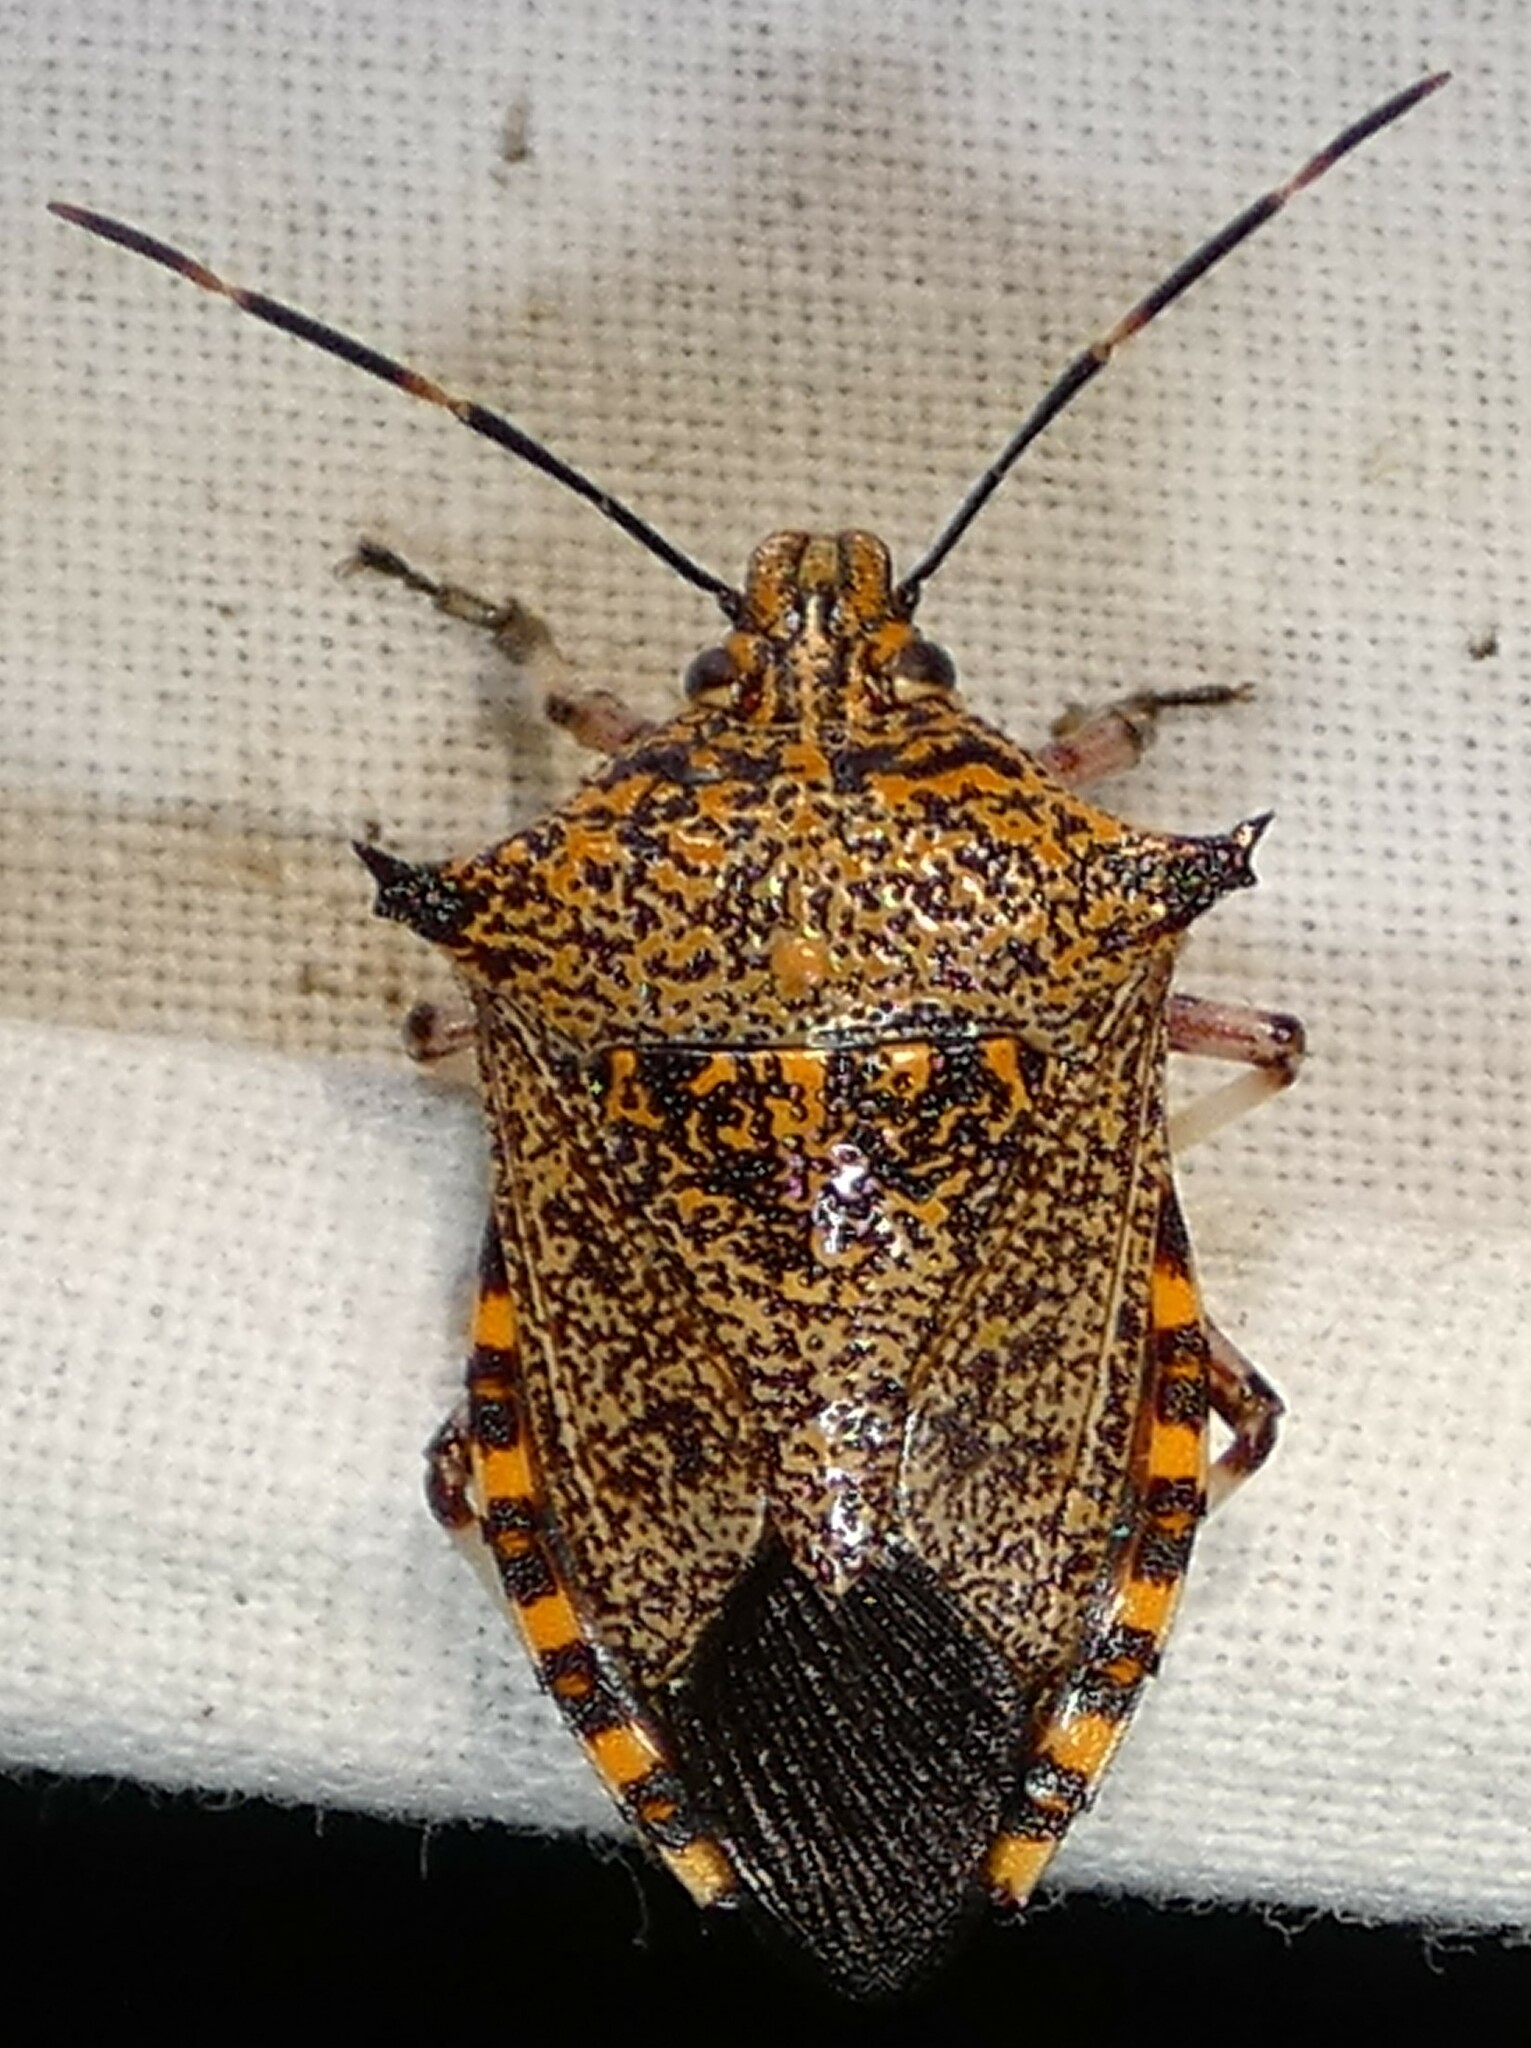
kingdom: Animalia
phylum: Arthropoda
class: Insecta
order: Hemiptera
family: Pentatomidae
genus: Alcaeorrhynchus
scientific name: Alcaeorrhynchus grandis
